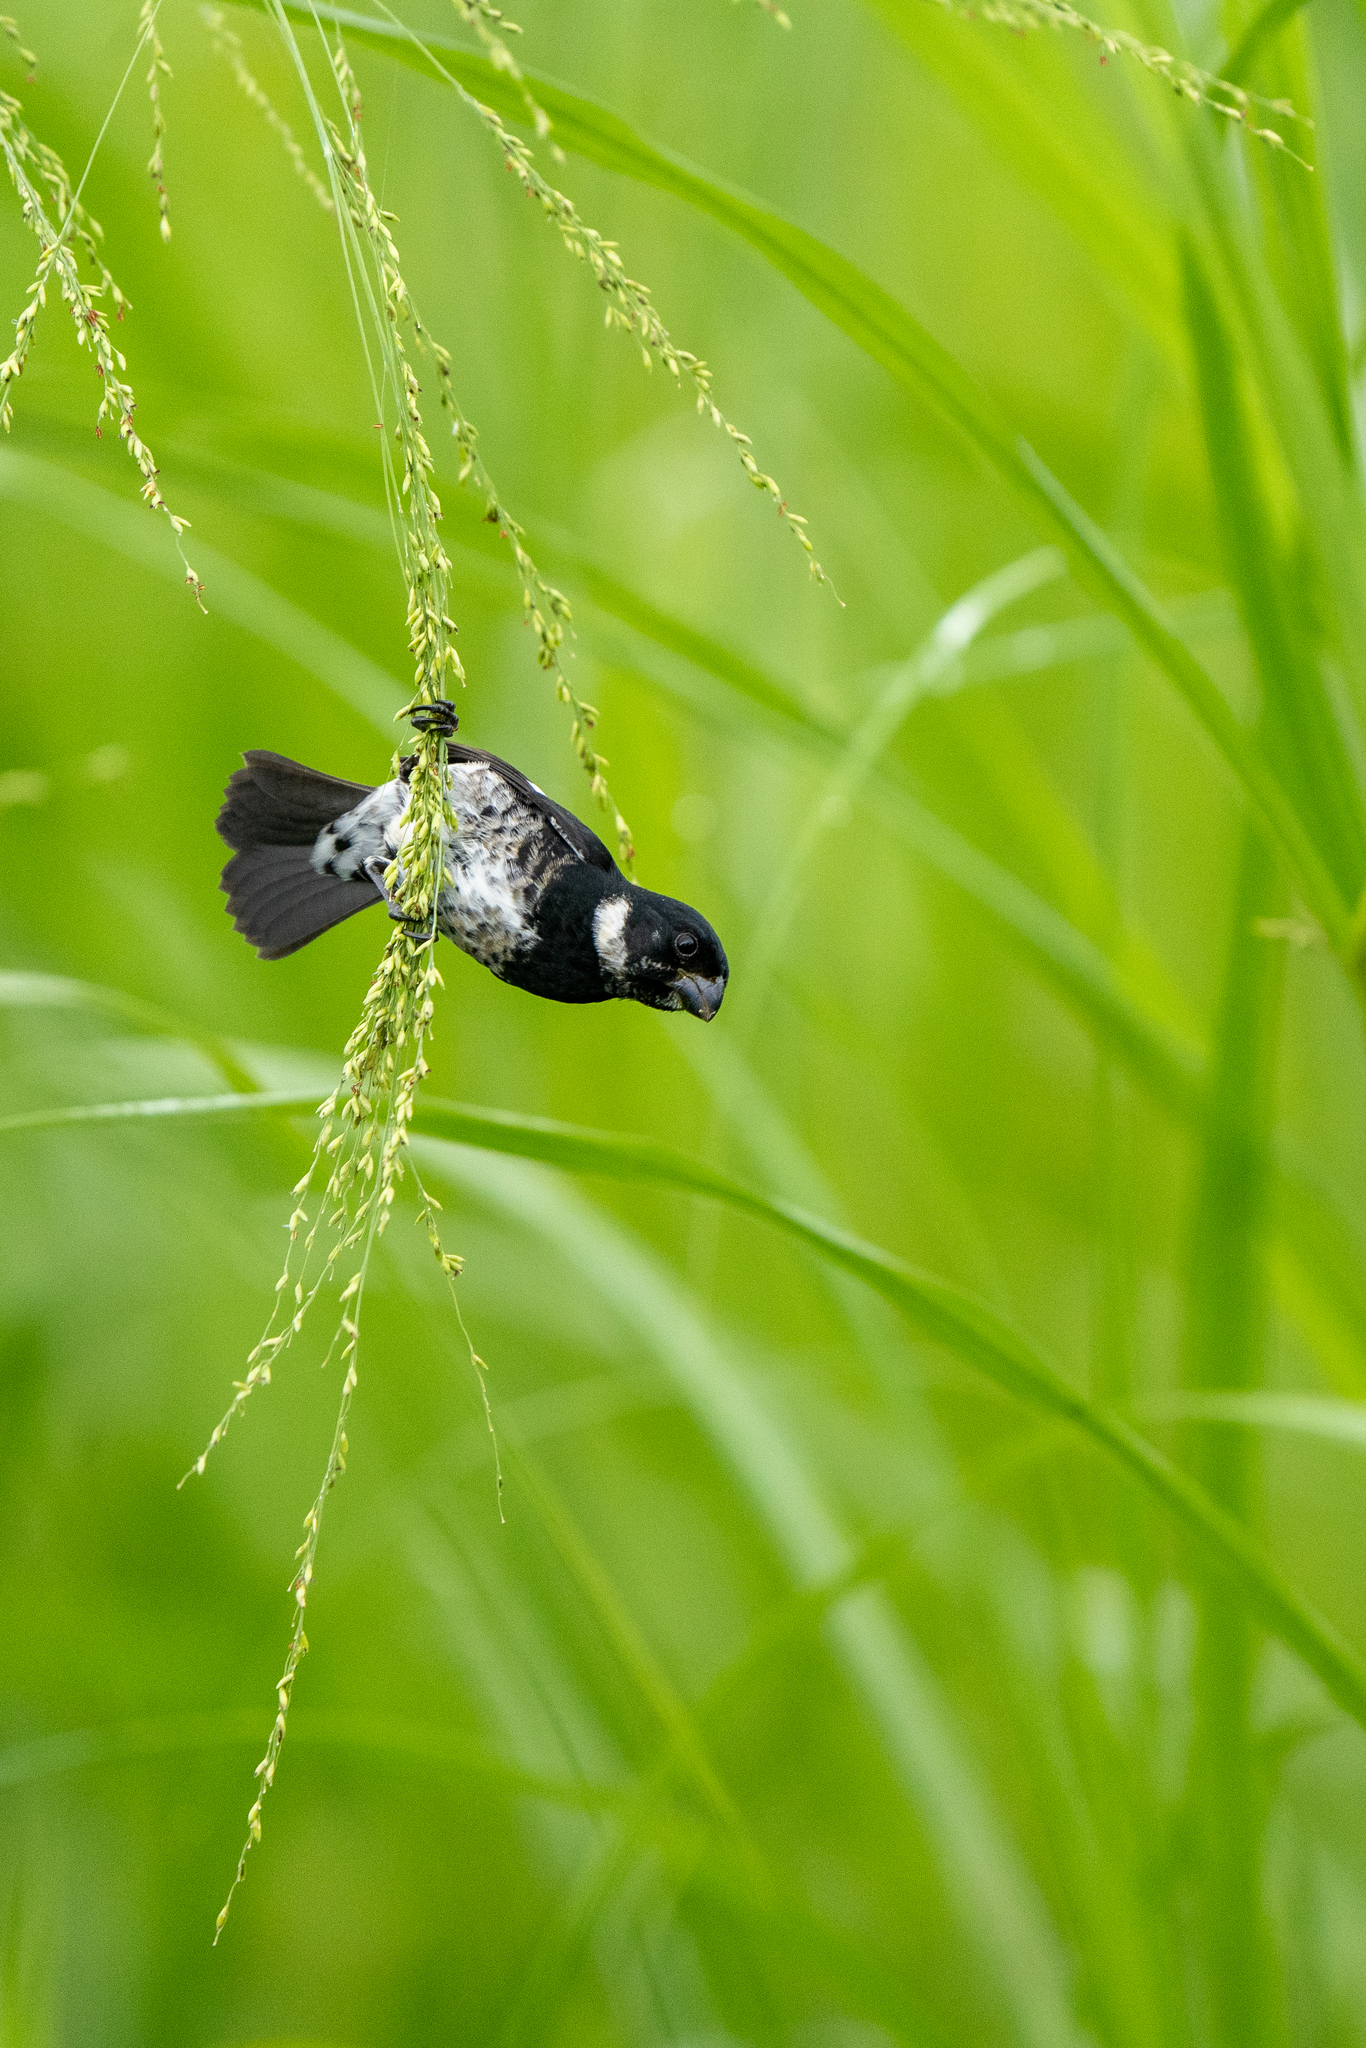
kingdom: Animalia
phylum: Chordata
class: Aves
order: Passeriformes
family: Thraupidae
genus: Sporophila
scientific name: Sporophila corvina
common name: Variable seedeater
